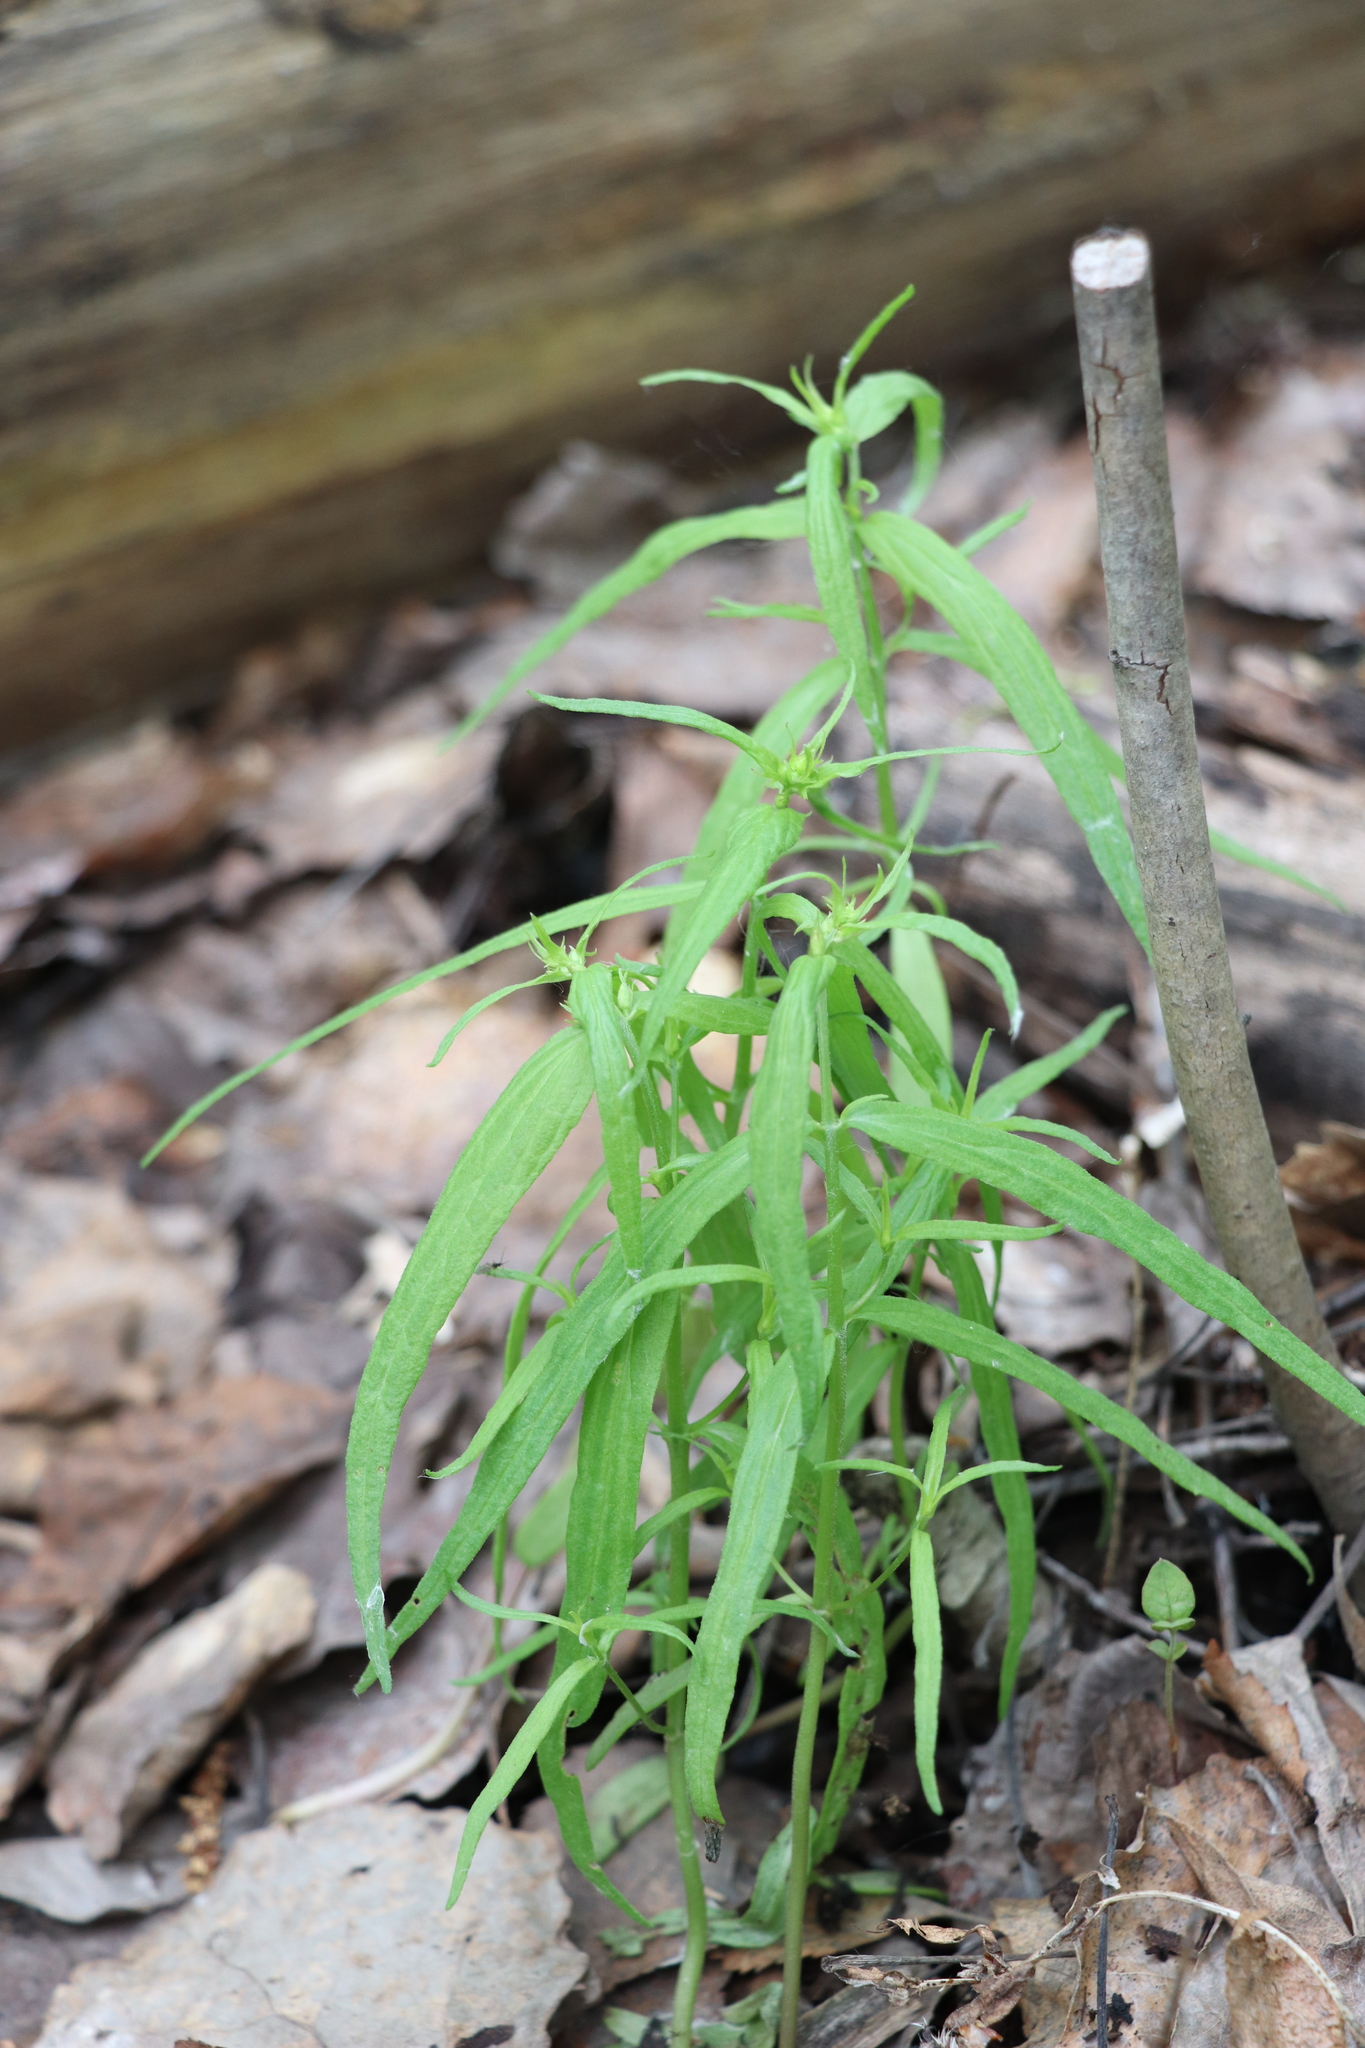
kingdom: Plantae
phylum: Tracheophyta
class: Magnoliopsida
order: Lamiales
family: Orobanchaceae
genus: Melampyrum
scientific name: Melampyrum pratense
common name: Common cow-wheat
